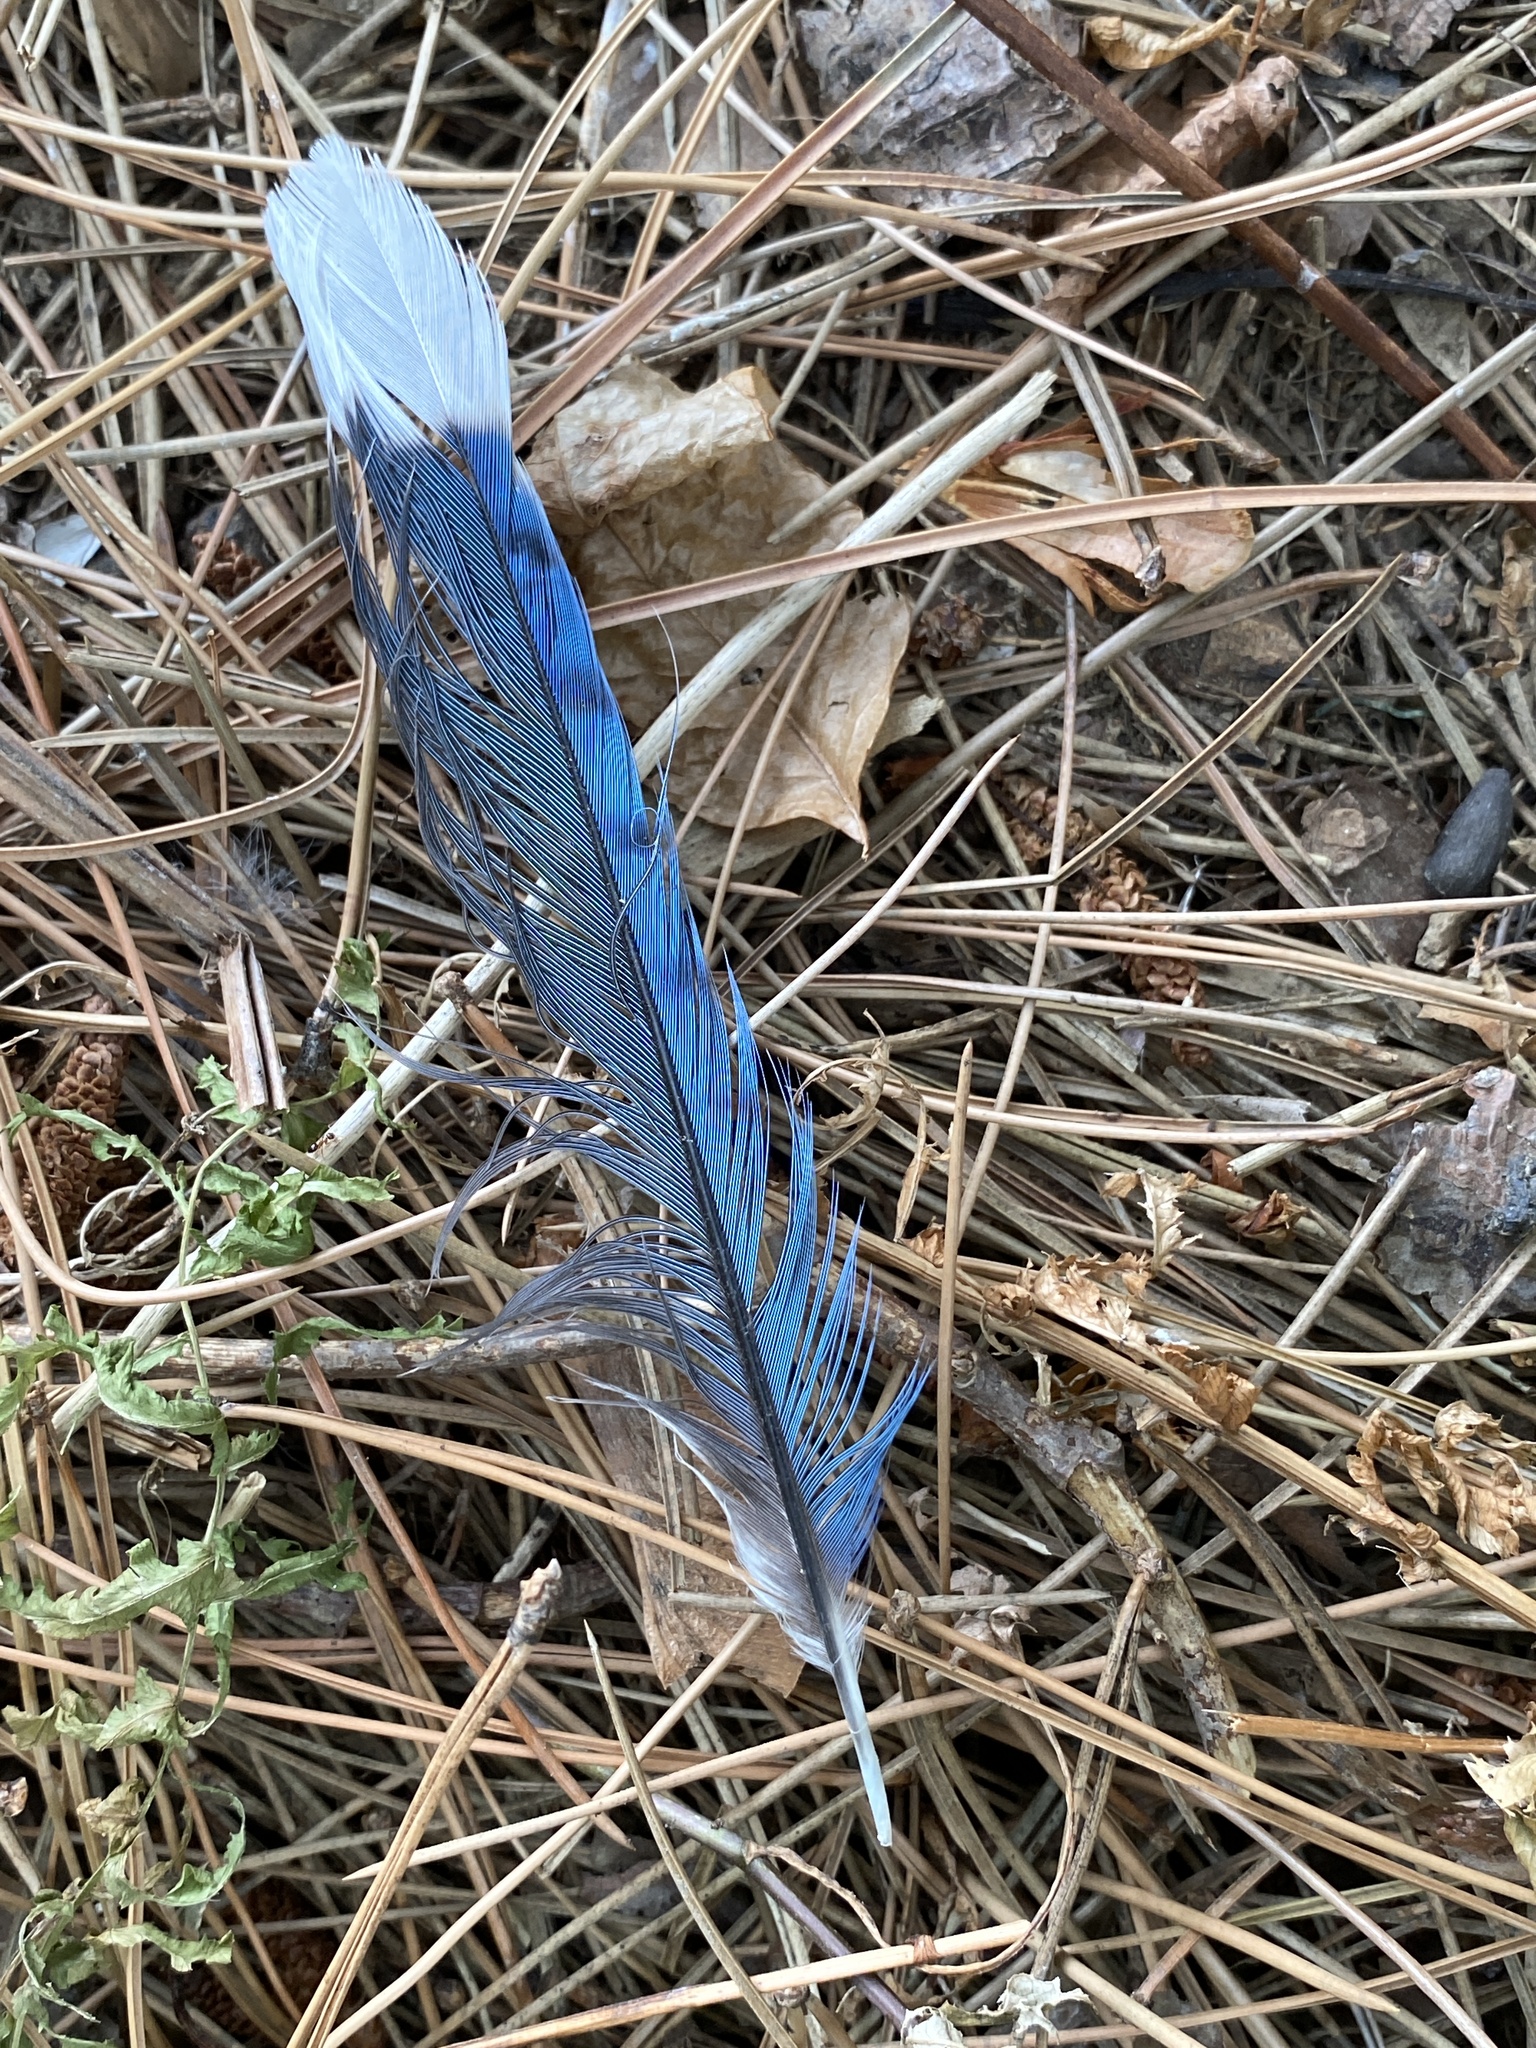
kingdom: Animalia
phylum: Chordata
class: Aves
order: Passeriformes
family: Corvidae
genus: Cyanocitta
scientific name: Cyanocitta cristata
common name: Blue jay
